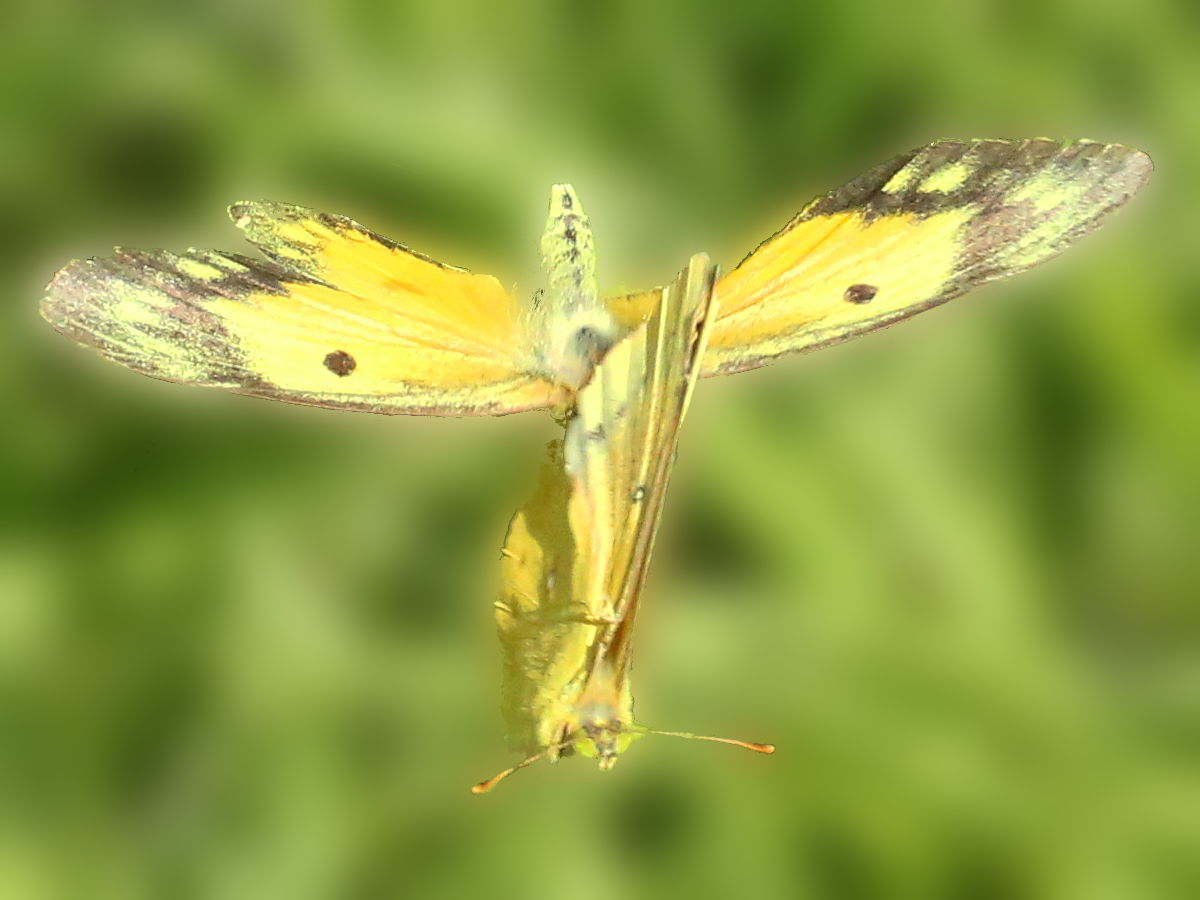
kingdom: Animalia
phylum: Arthropoda
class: Insecta
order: Lepidoptera
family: Pieridae
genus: Colias
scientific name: Colias eurytheme
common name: Alfalfa butterfly
